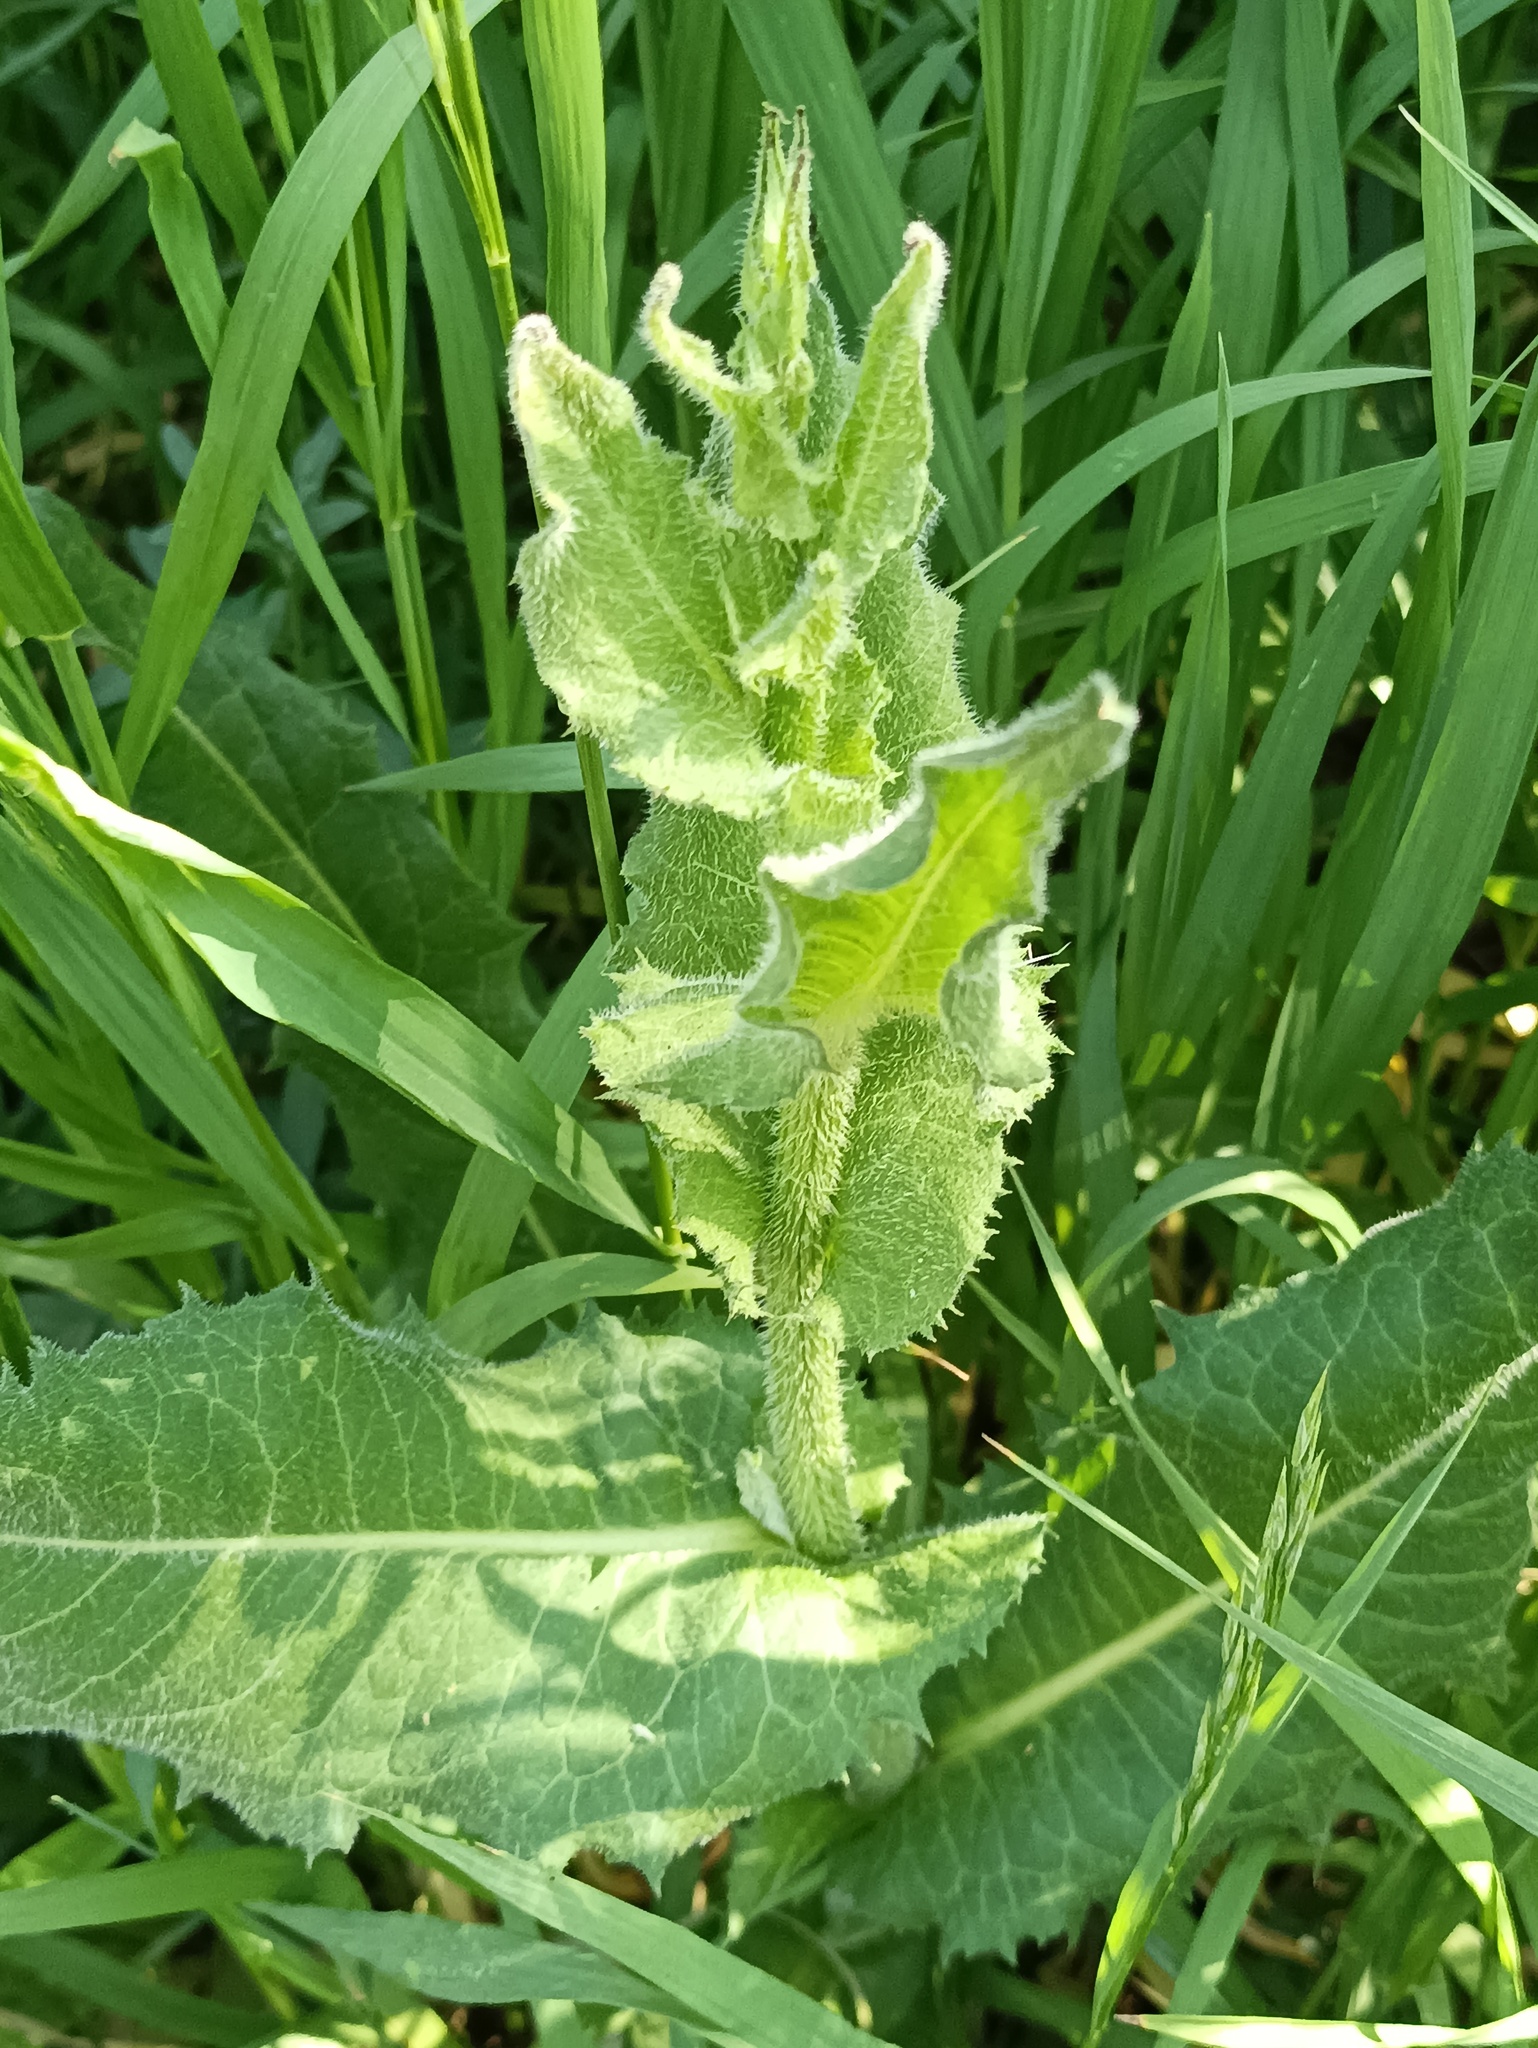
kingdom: Plantae
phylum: Tracheophyta
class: Magnoliopsida
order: Asterales
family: Asteraceae
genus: Cichorium
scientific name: Cichorium intybus
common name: Chicory
